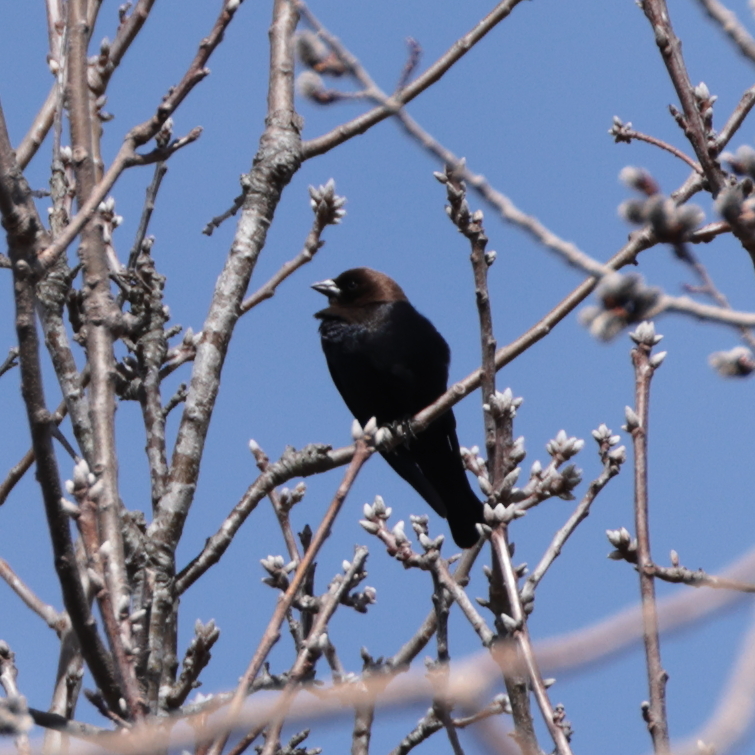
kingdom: Animalia
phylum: Chordata
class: Aves
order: Passeriformes
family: Icteridae
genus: Molothrus
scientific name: Molothrus ater
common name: Brown-headed cowbird
